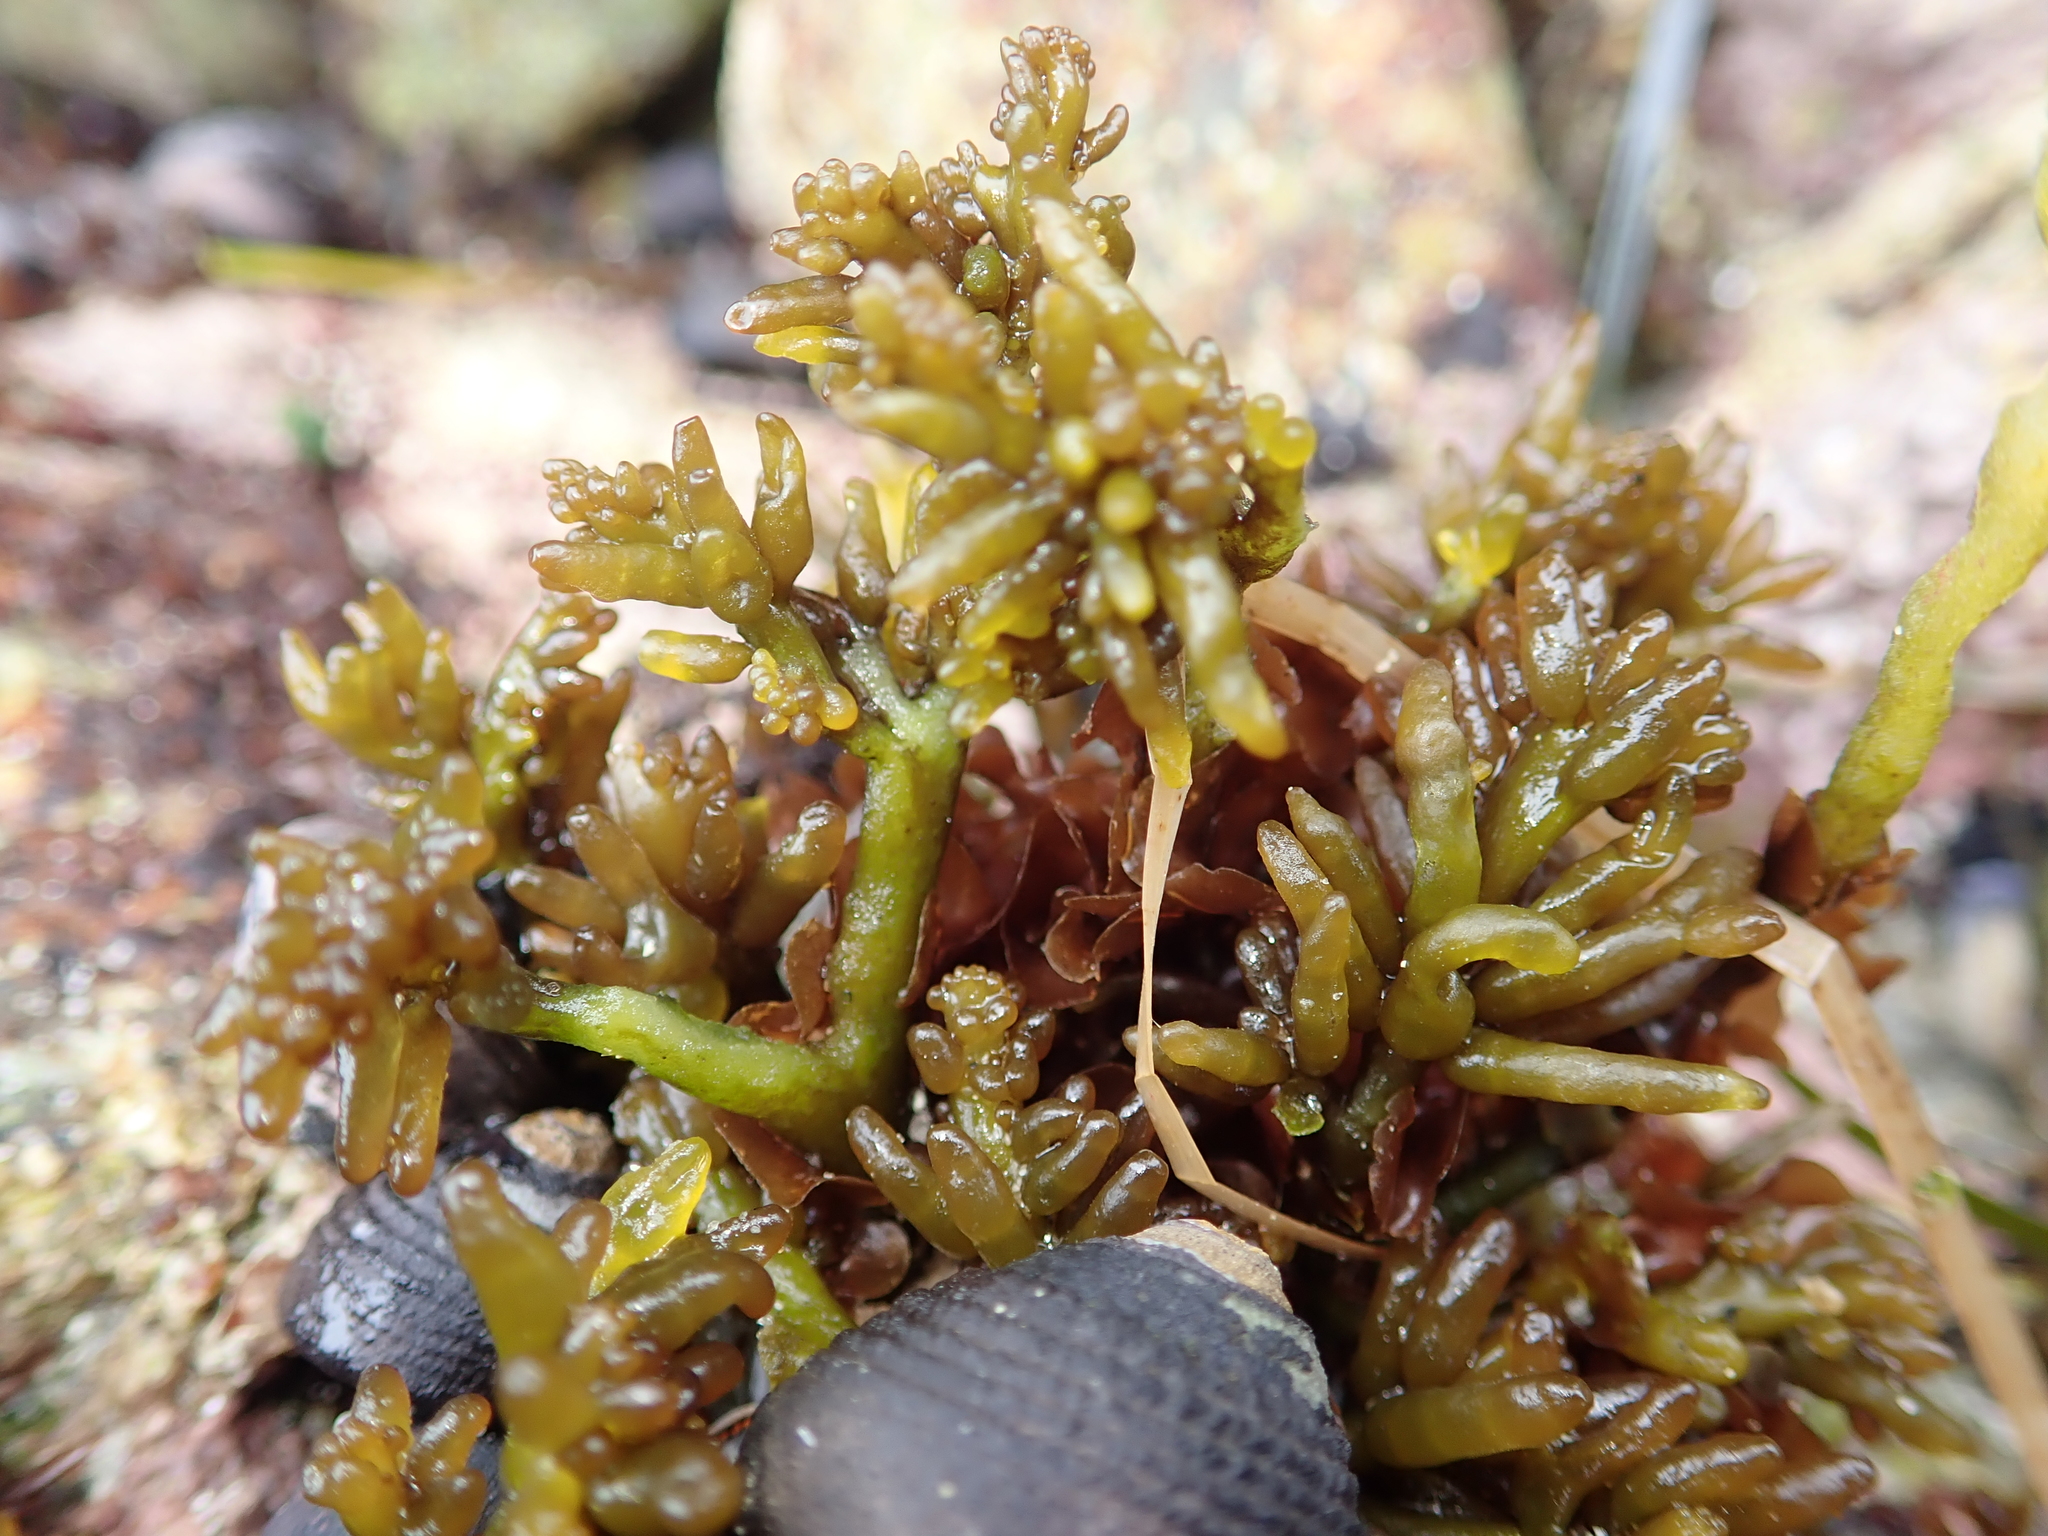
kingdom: Plantae
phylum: Rhodophyta
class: Florideophyceae
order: Rhodymeniales
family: Champiaceae
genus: Neogastroclonium
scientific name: Neogastroclonium subarticulatum
